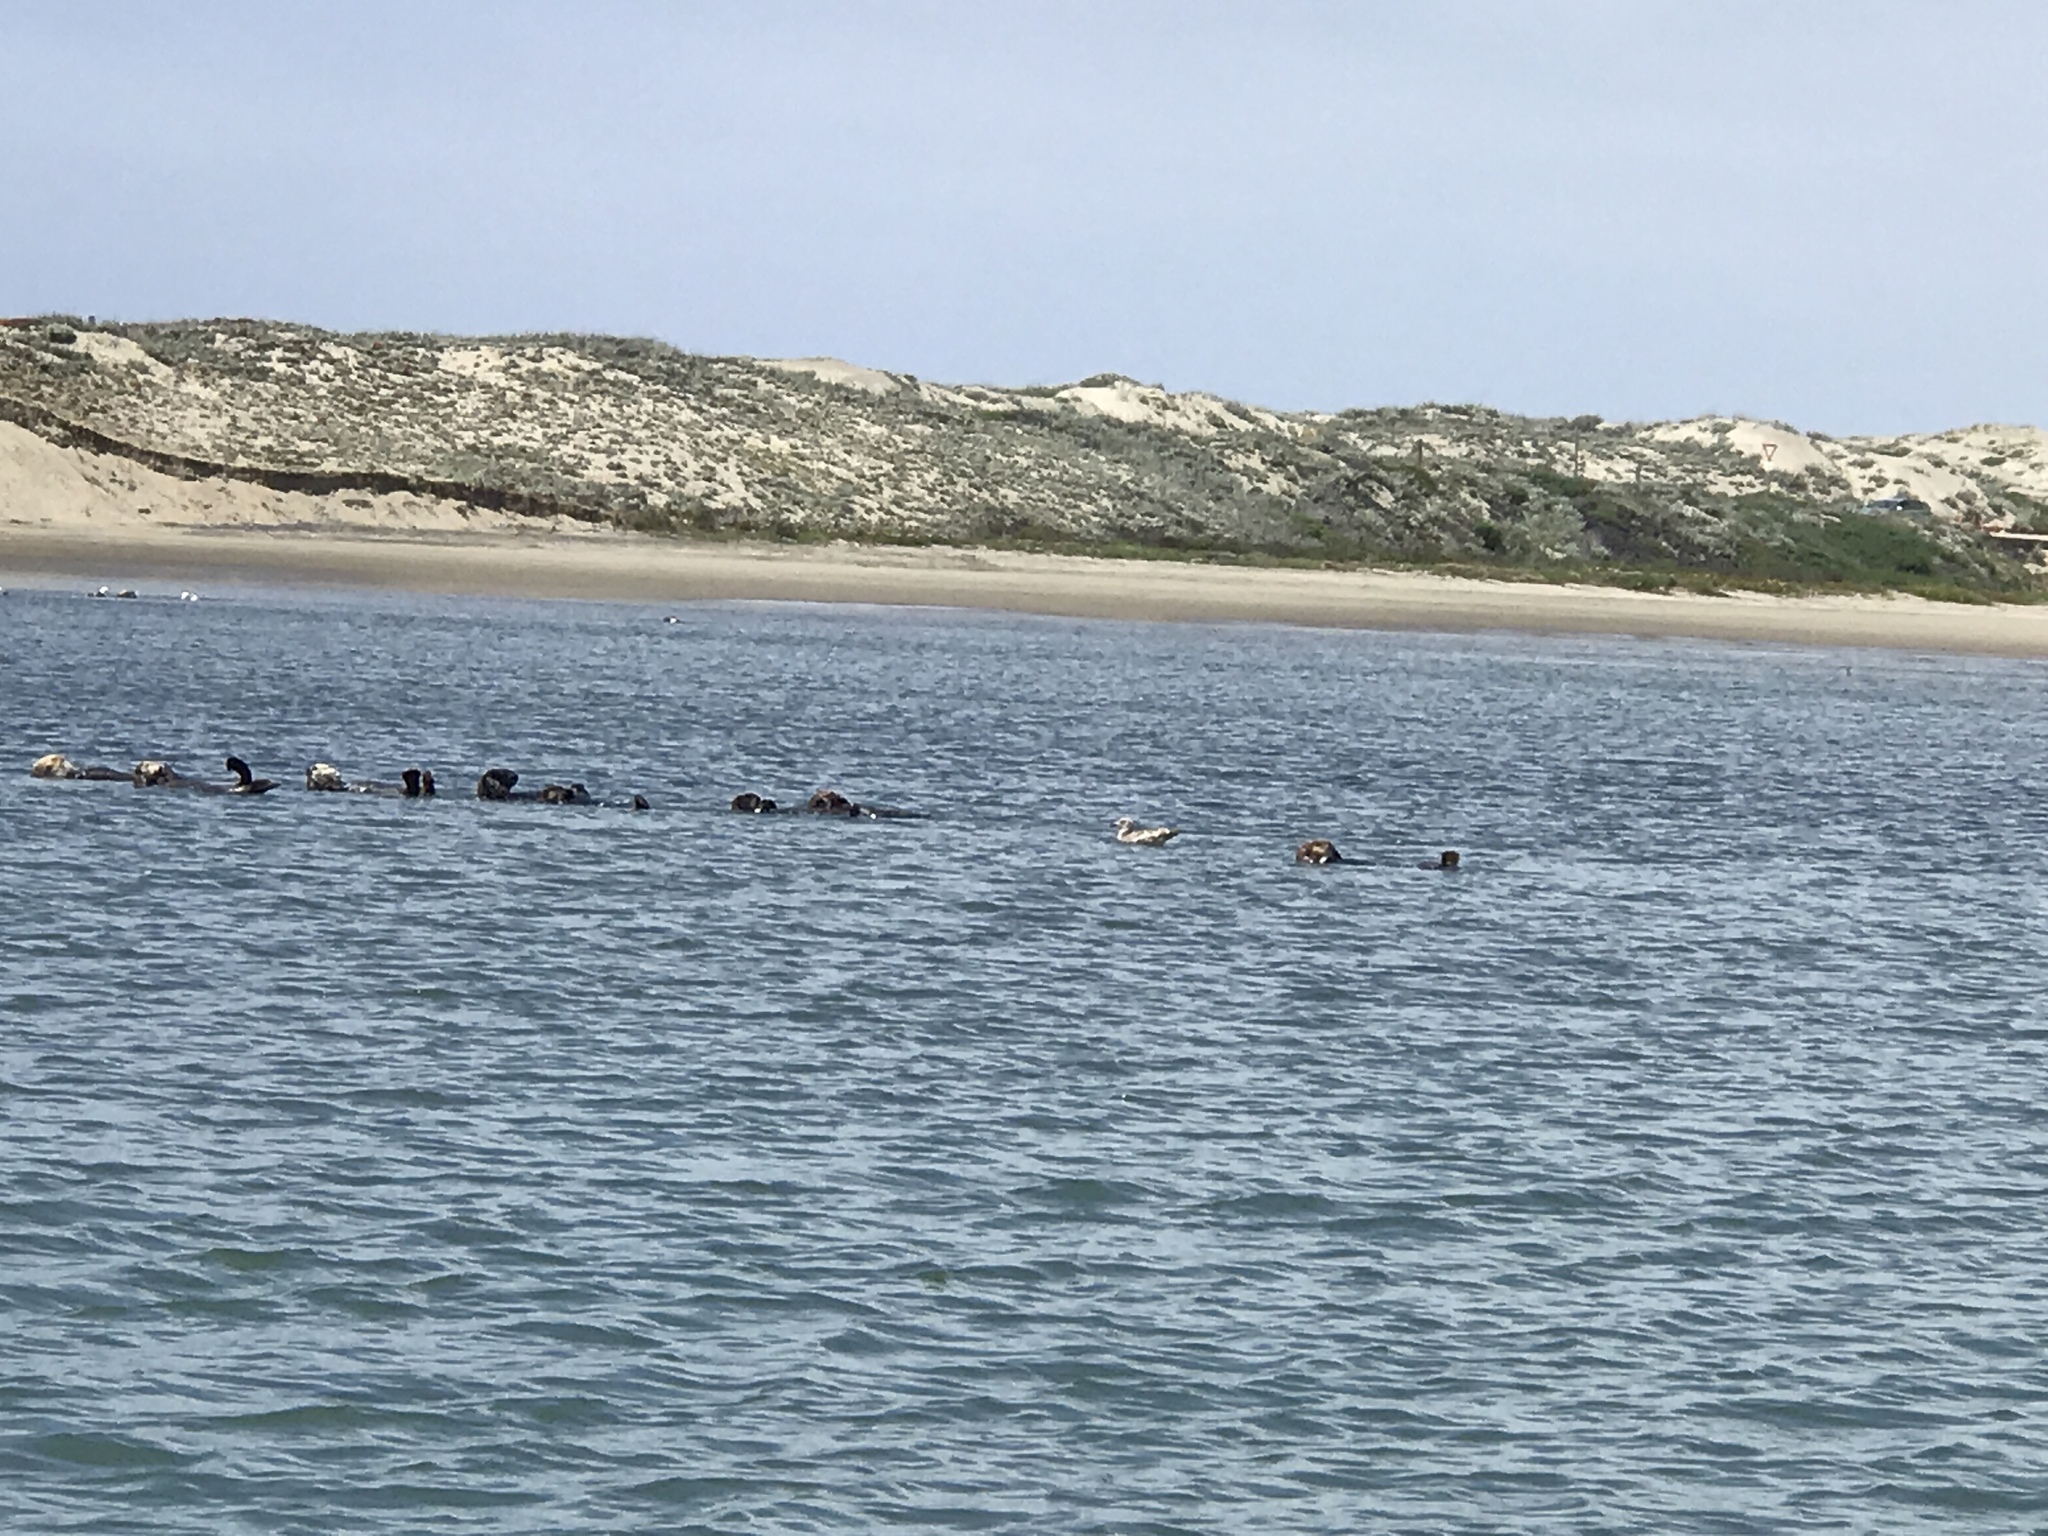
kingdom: Animalia
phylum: Chordata
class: Mammalia
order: Carnivora
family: Mustelidae
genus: Enhydra
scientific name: Enhydra lutris
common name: Sea otter
